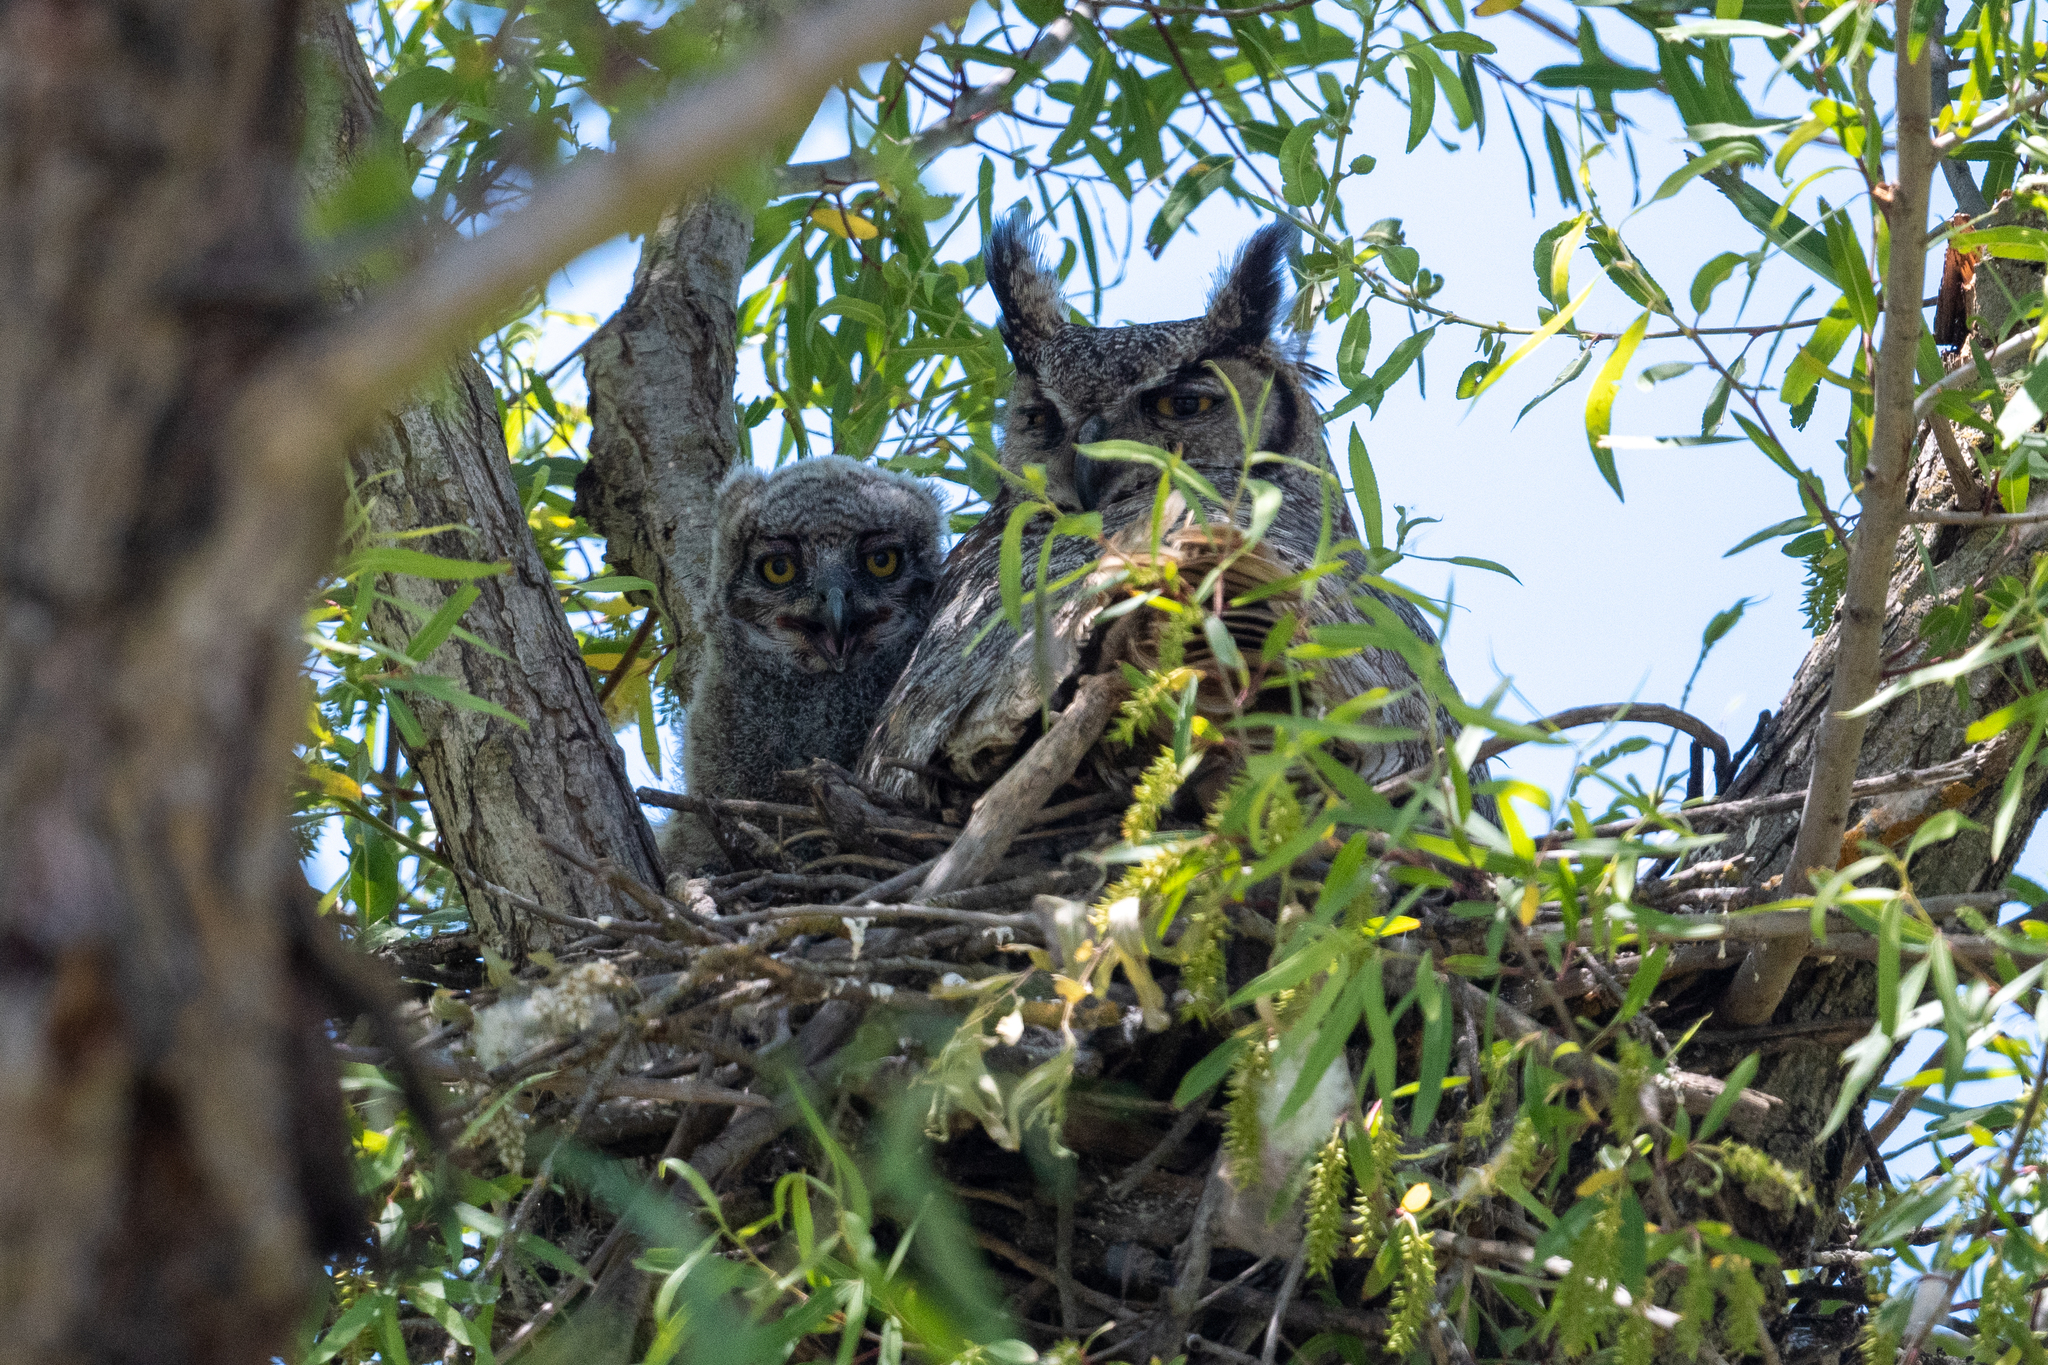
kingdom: Animalia
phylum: Chordata
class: Aves
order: Strigiformes
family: Strigidae
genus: Bubo
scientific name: Bubo virginianus
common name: Great horned owl
